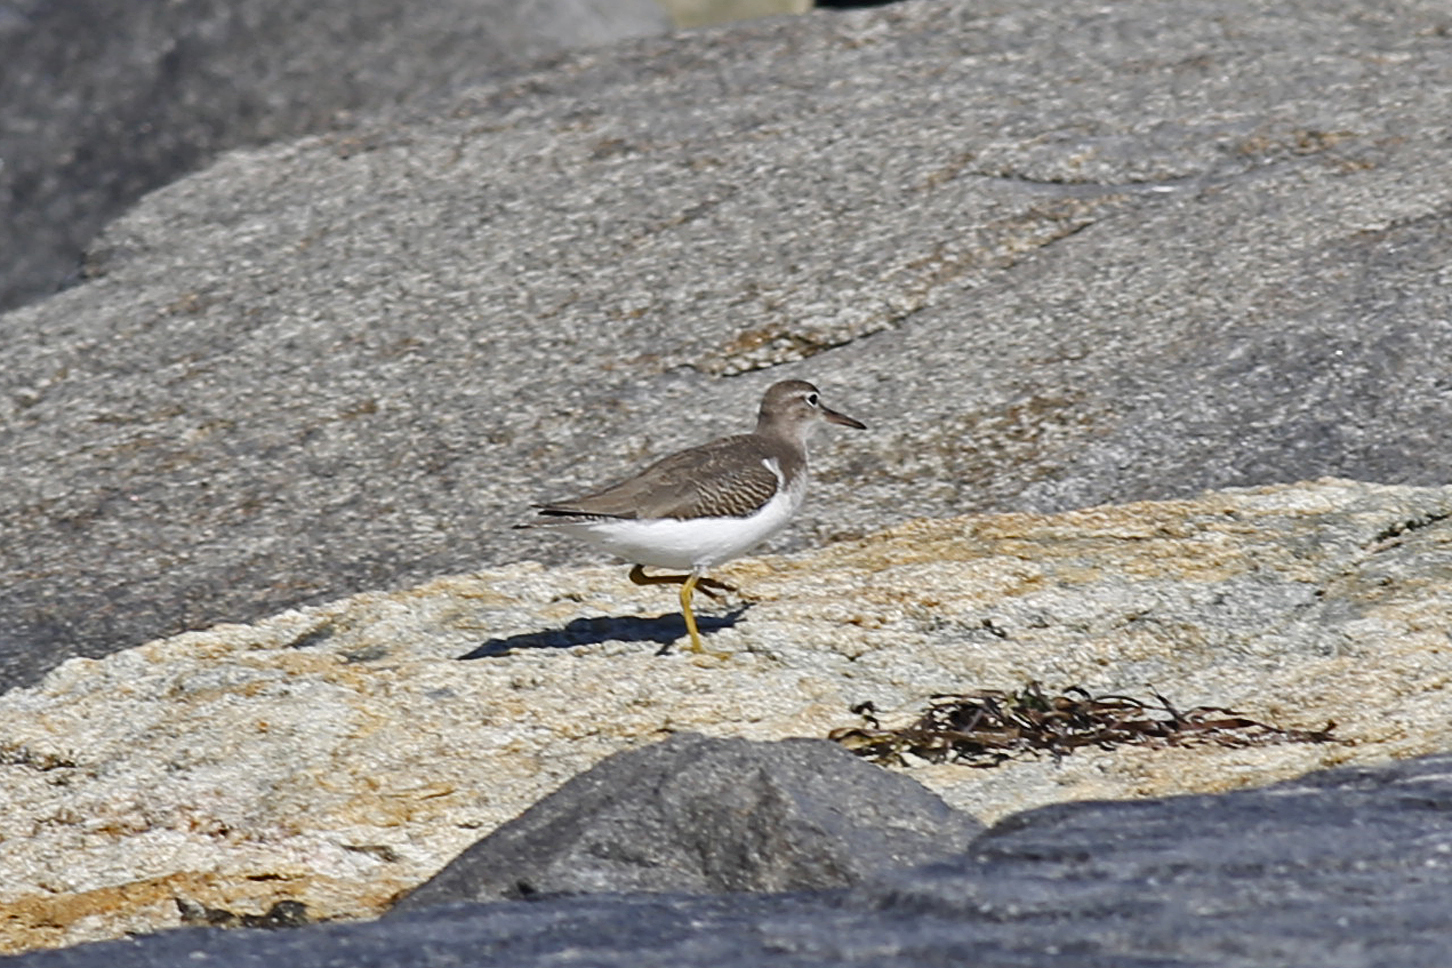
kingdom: Animalia
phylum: Chordata
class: Aves
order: Charadriiformes
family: Scolopacidae
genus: Actitis
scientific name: Actitis macularius
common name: Spotted sandpiper
